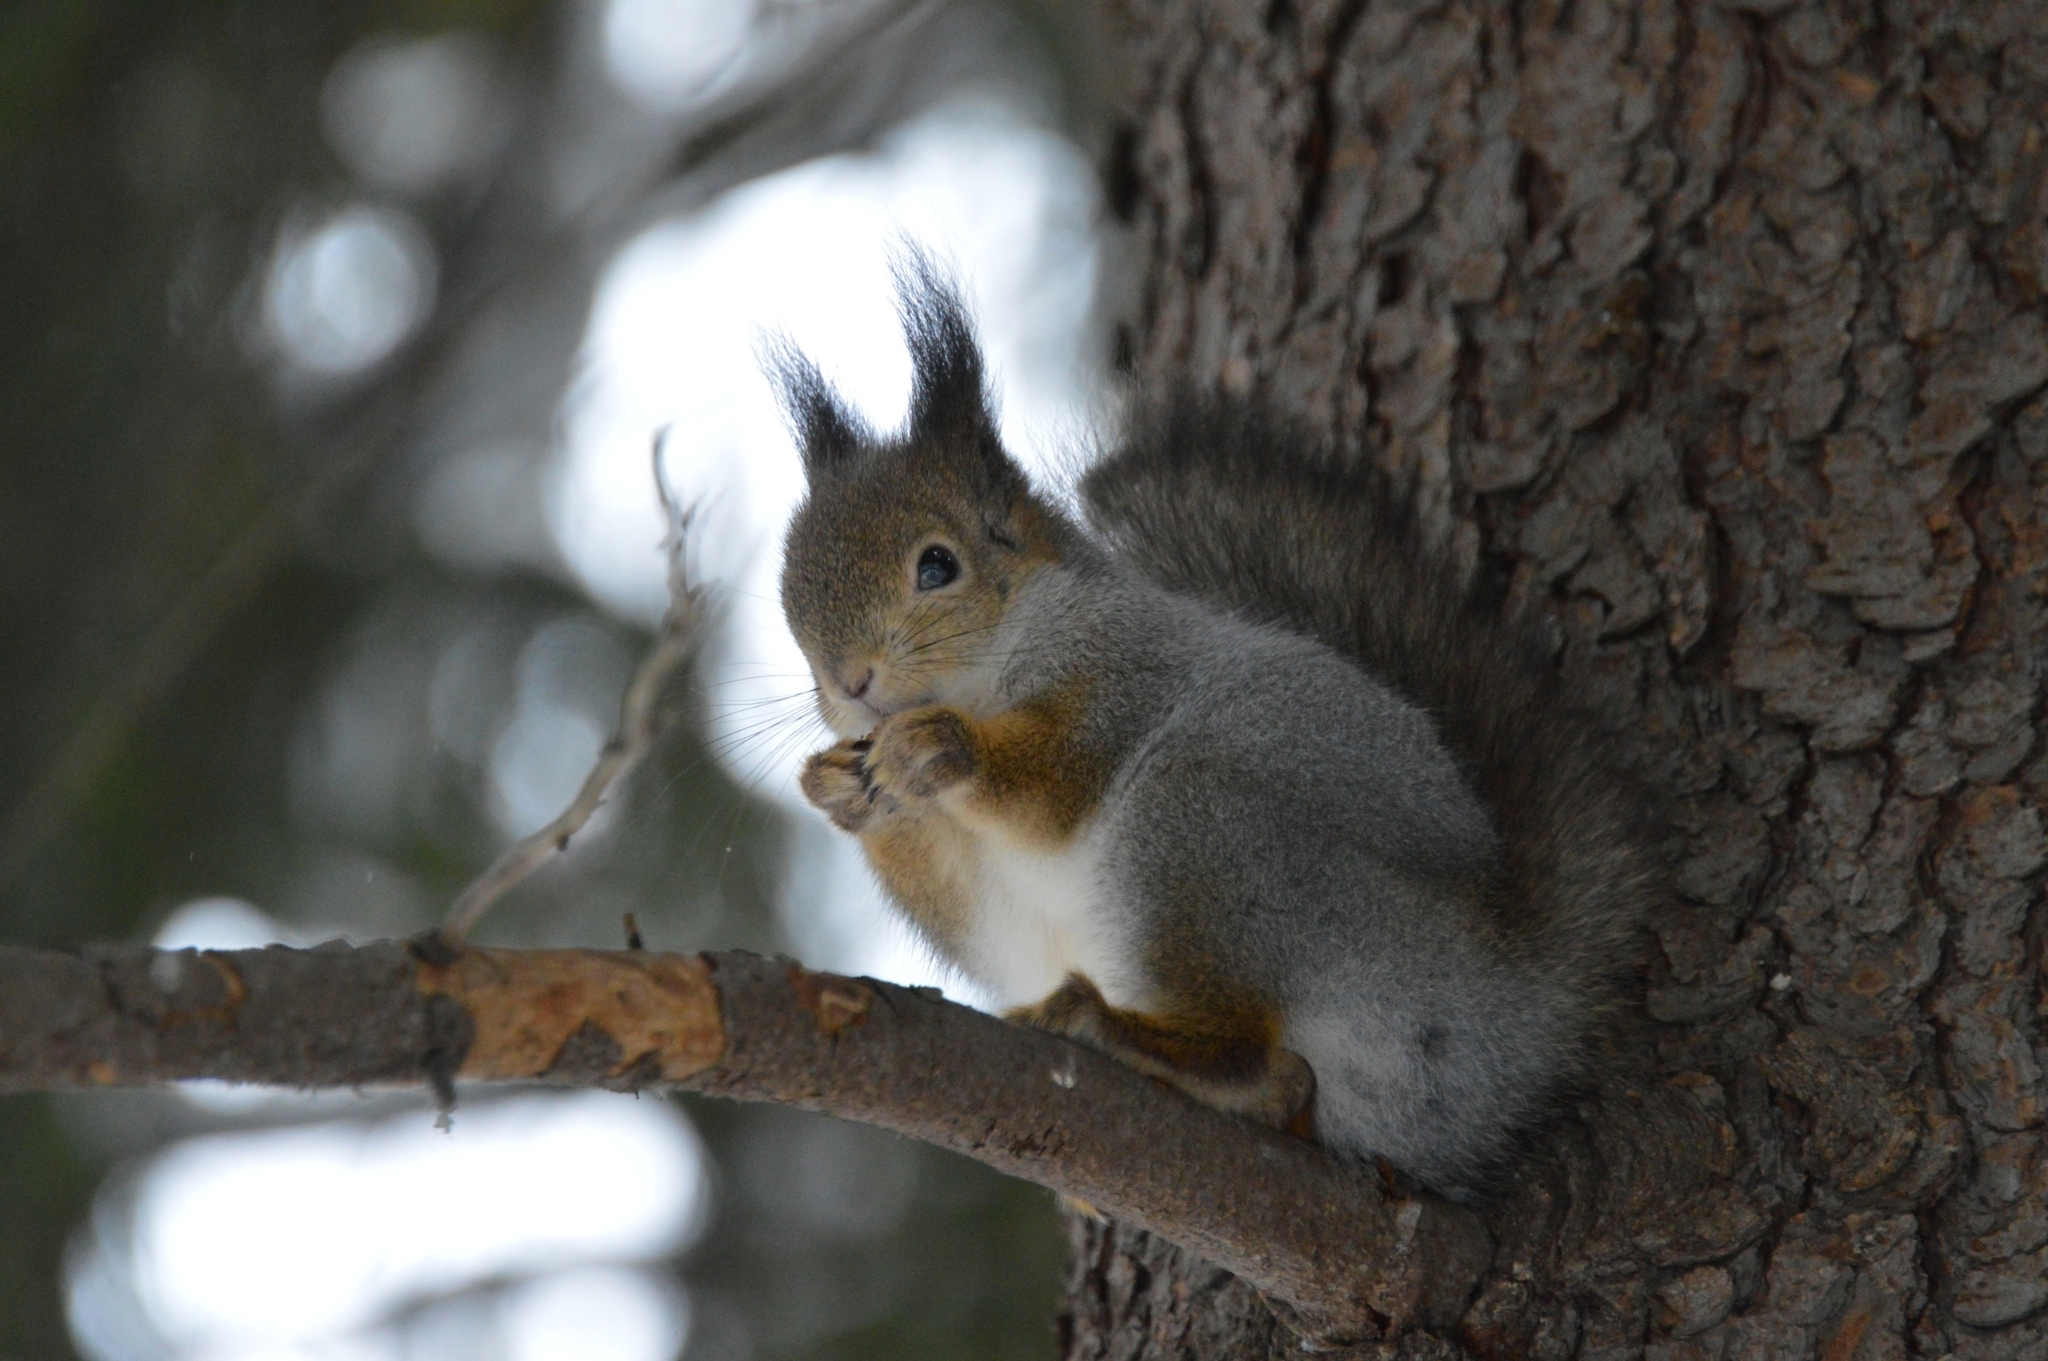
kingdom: Animalia
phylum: Chordata
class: Mammalia
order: Rodentia
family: Sciuridae
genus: Sciurus
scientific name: Sciurus vulgaris
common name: Eurasian red squirrel
